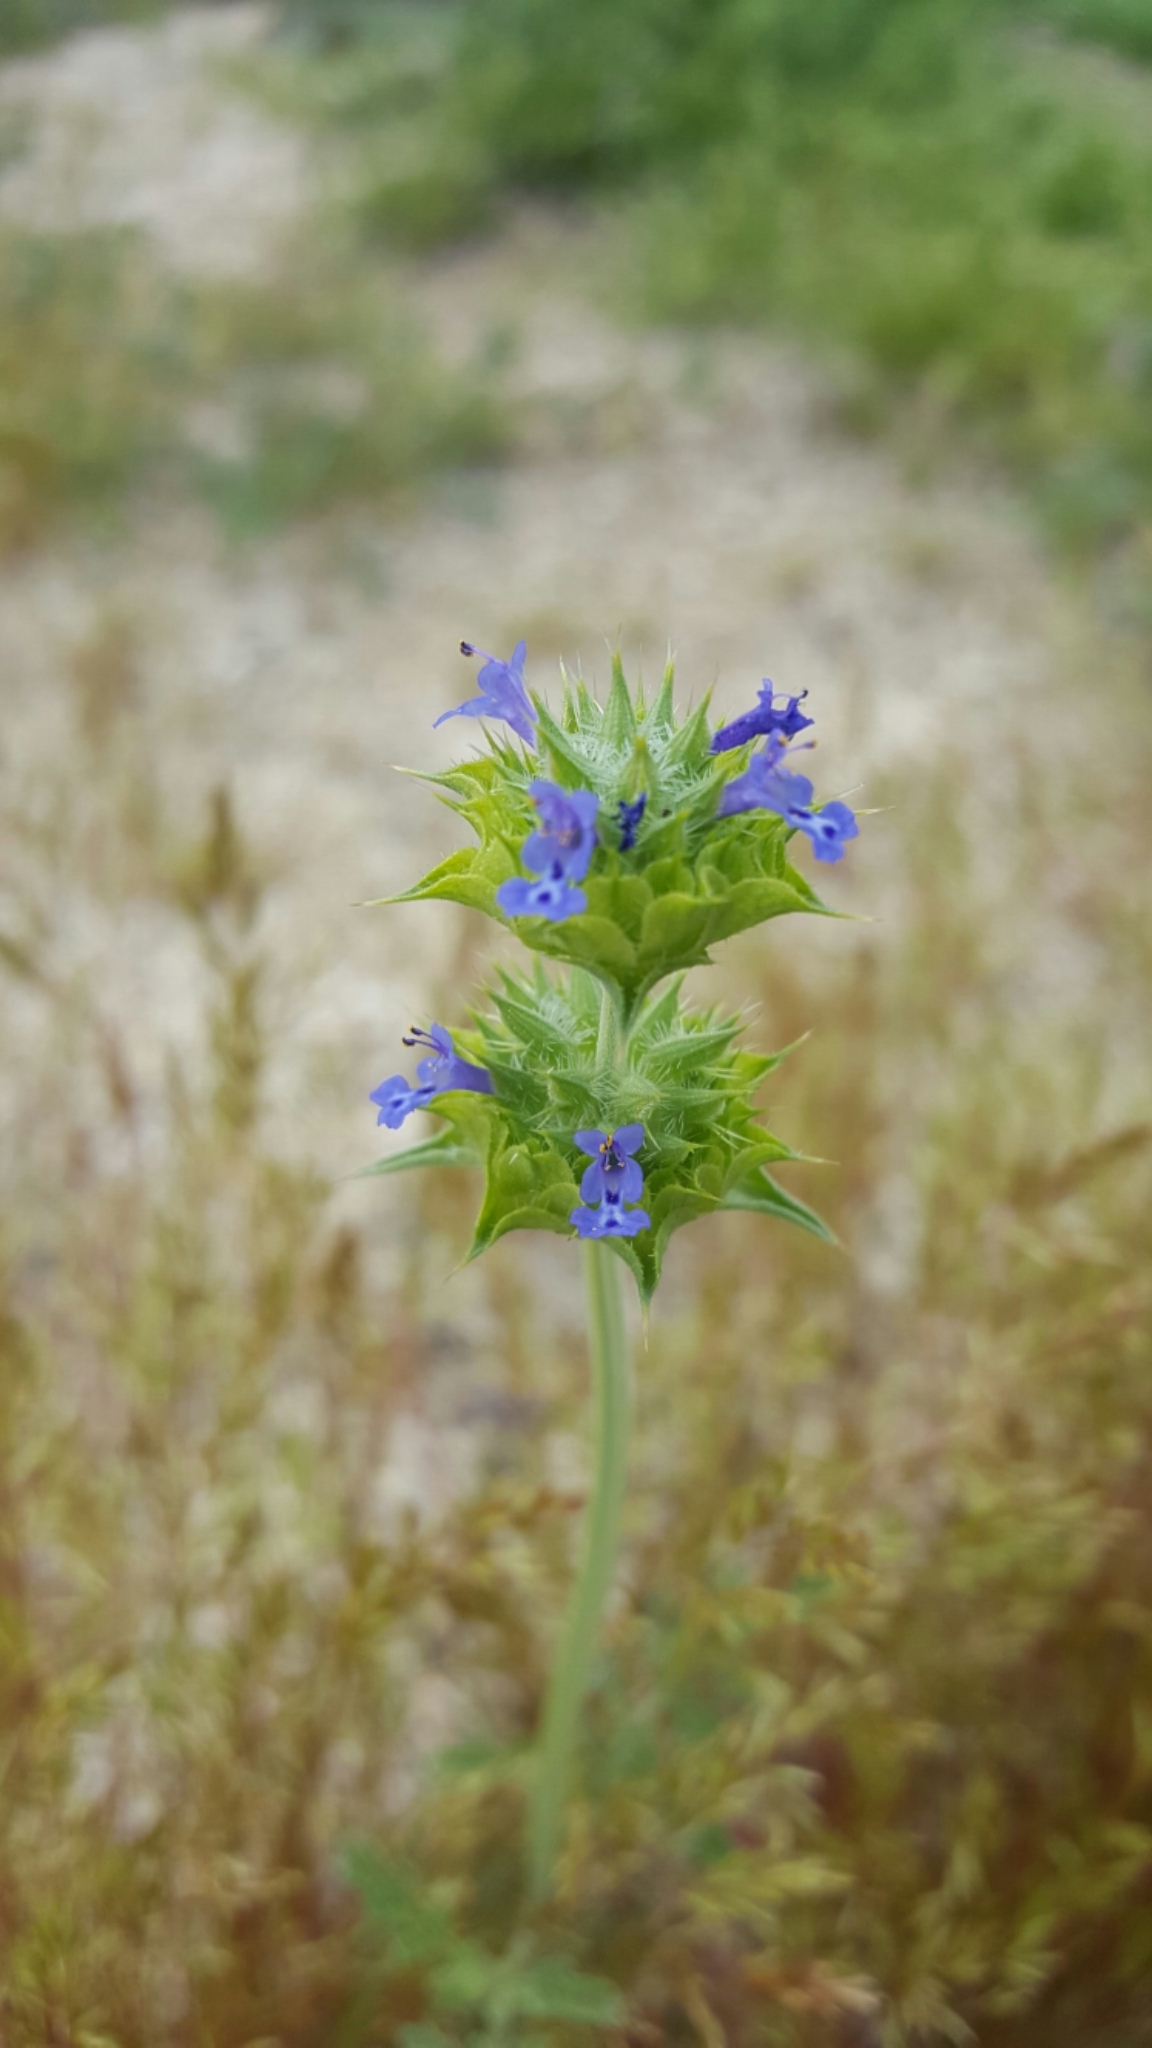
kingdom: Plantae
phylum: Tracheophyta
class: Magnoliopsida
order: Lamiales
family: Lamiaceae
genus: Salvia
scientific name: Salvia columbariae
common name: Chia
